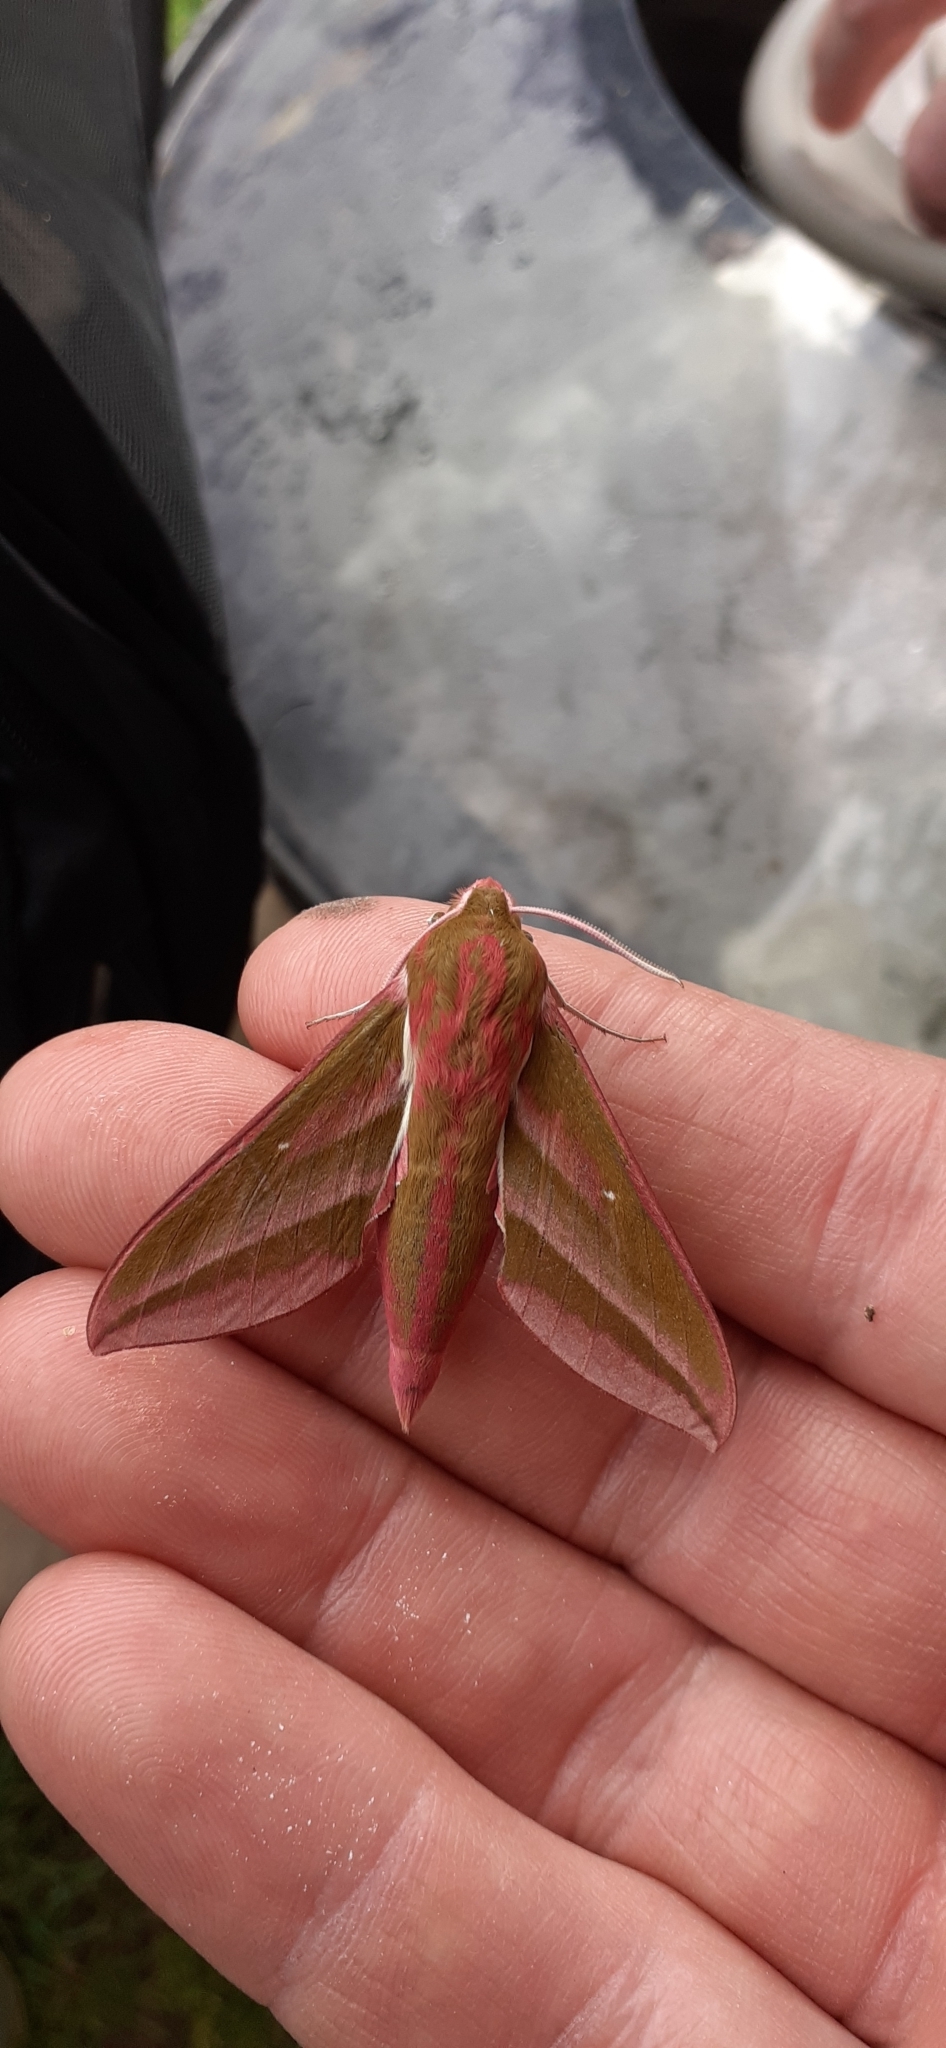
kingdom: Animalia
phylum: Arthropoda
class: Insecta
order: Lepidoptera
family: Sphingidae
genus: Deilephila
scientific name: Deilephila elpenor
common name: Elephant hawk-moth
